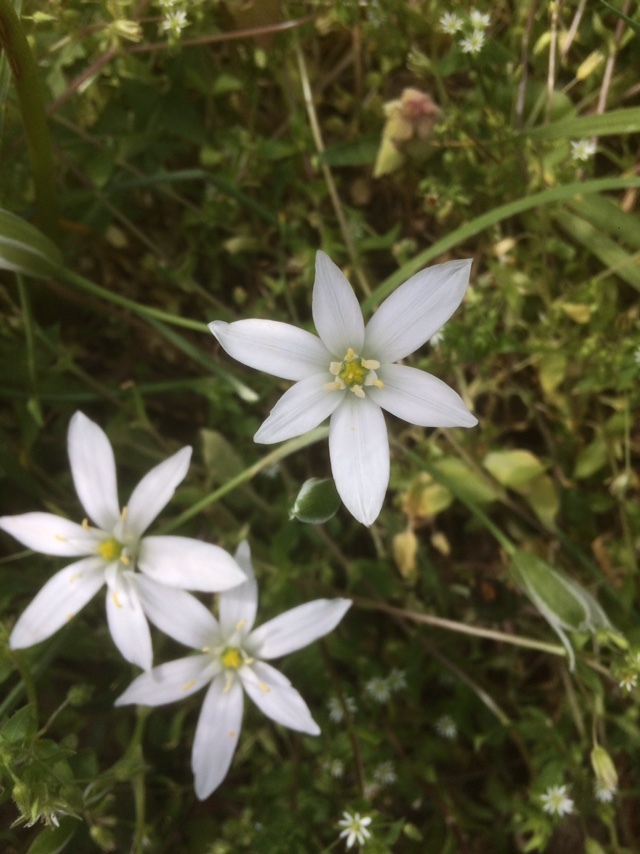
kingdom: Plantae
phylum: Tracheophyta
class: Liliopsida
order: Asparagales
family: Asparagaceae
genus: Ornithogalum
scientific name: Ornithogalum orthophyllum
